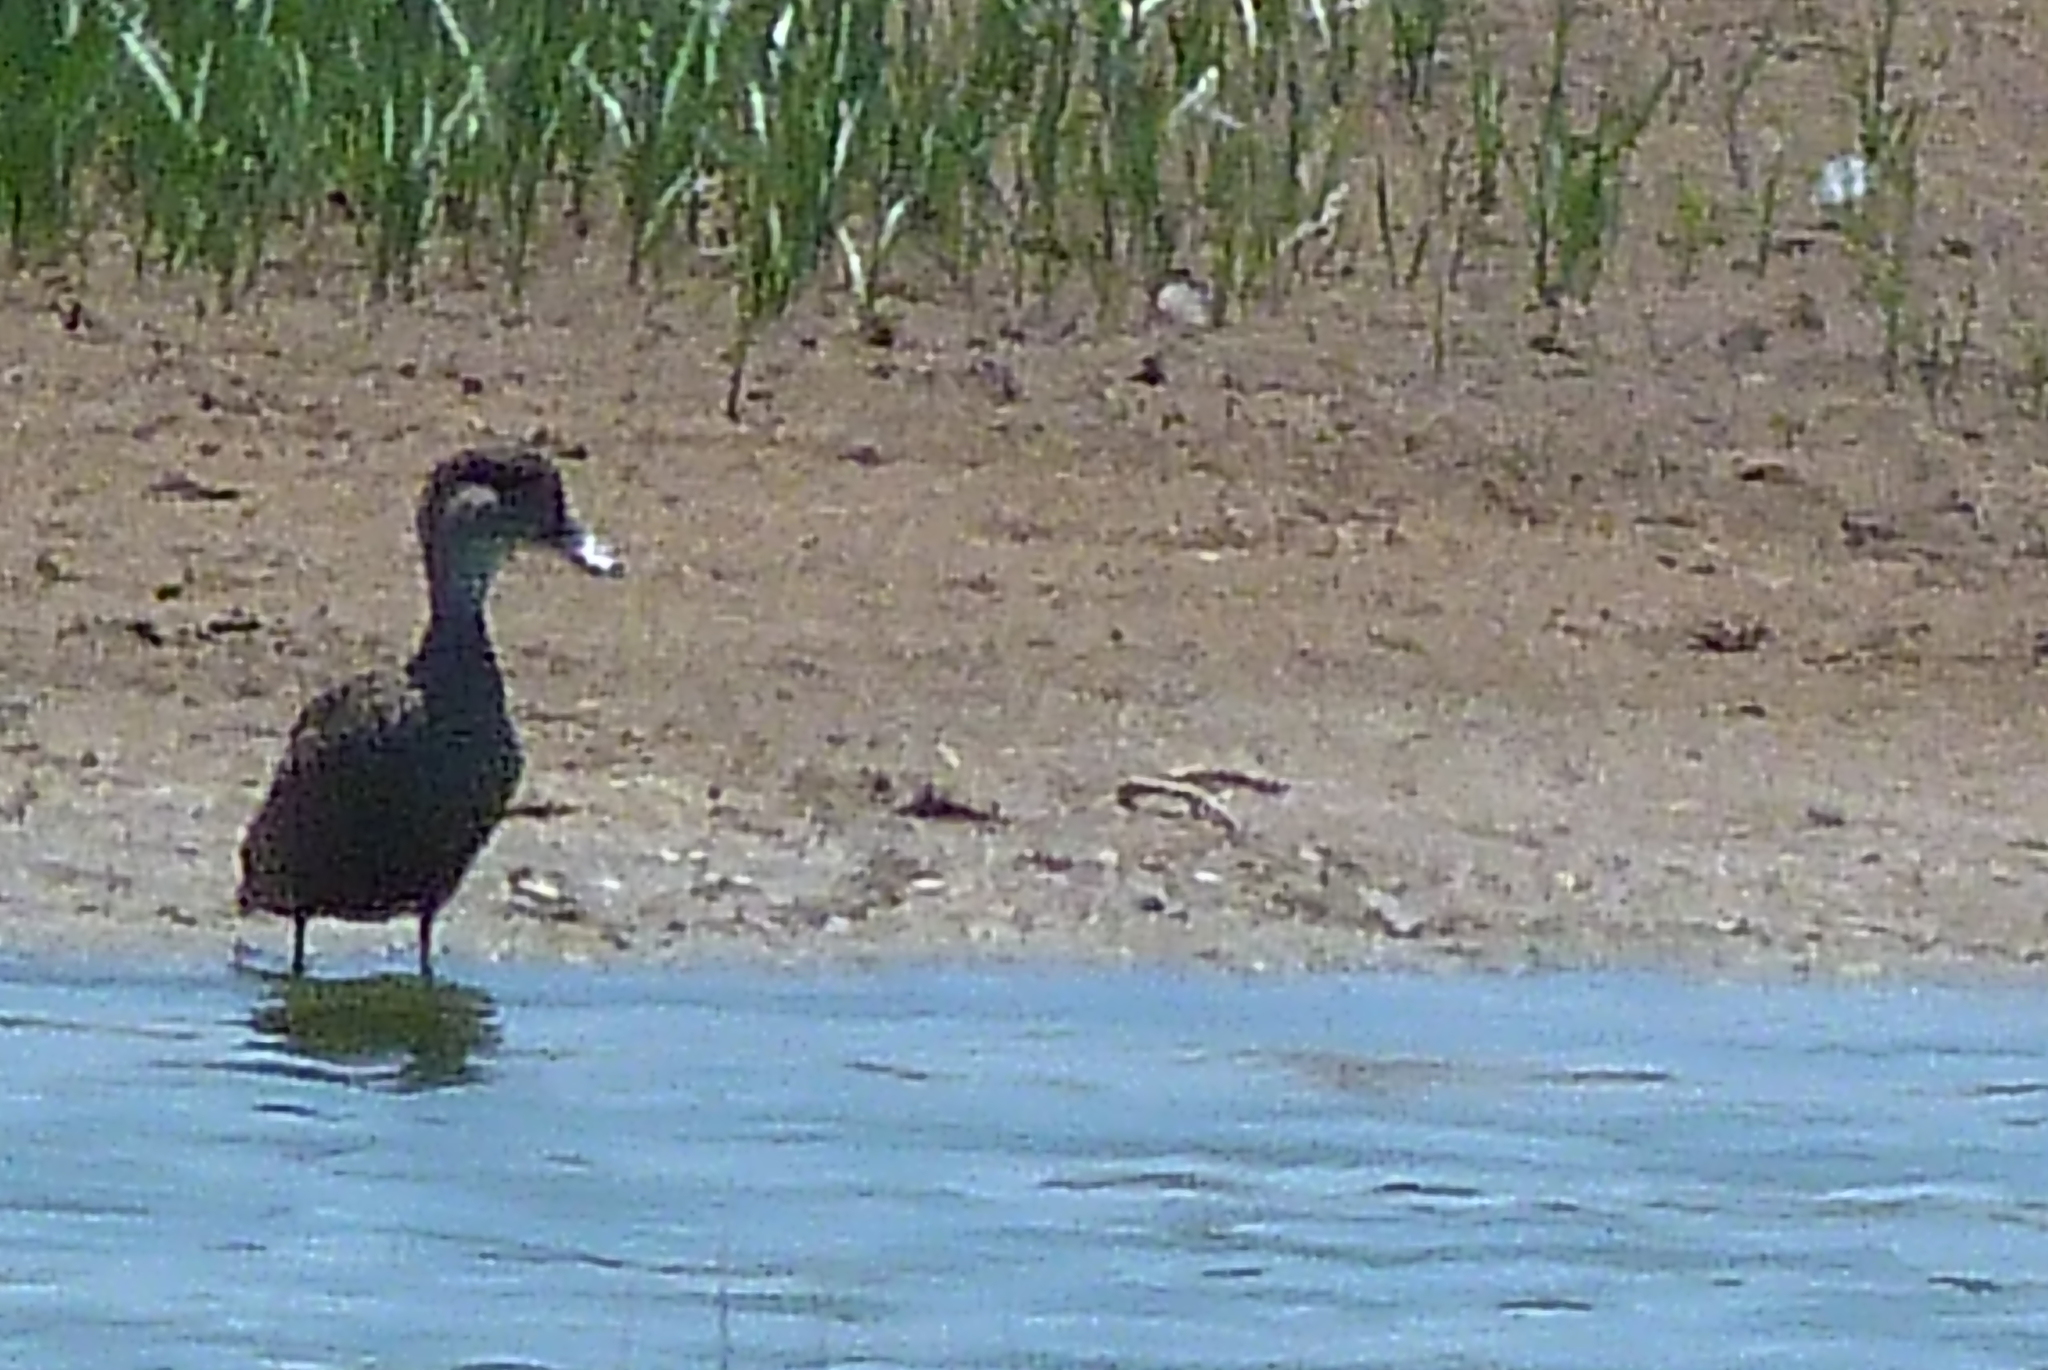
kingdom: Animalia
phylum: Chordata
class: Aves
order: Anseriformes
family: Anatidae
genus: Anas
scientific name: Anas gracilis
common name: Grey teal
